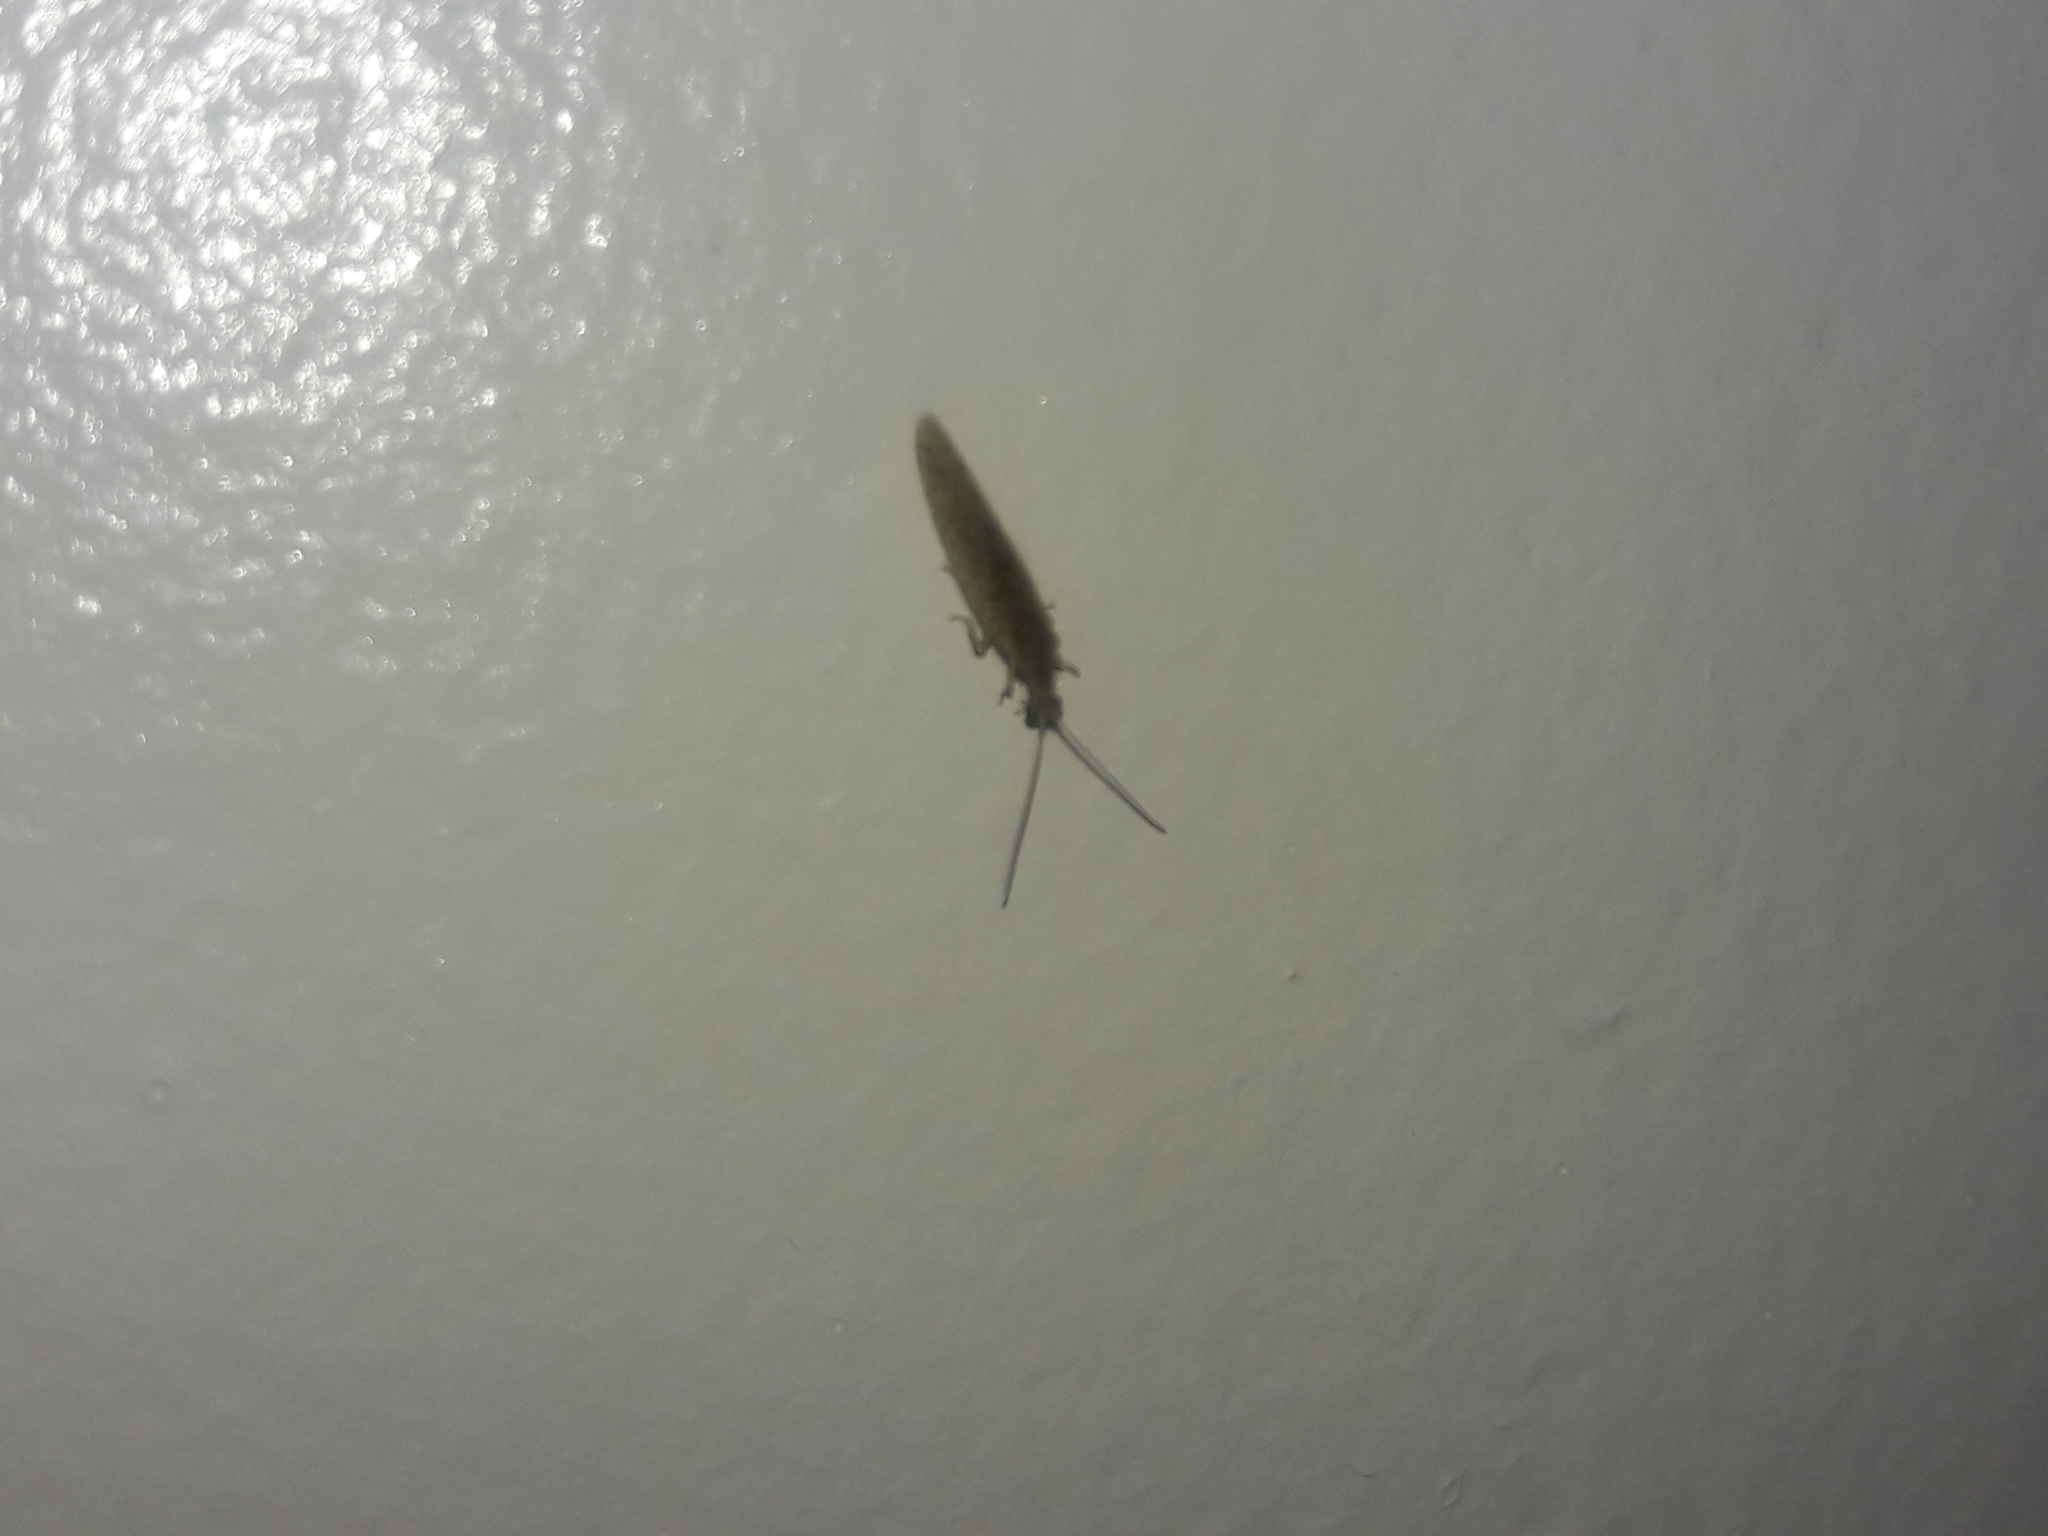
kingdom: Animalia
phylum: Arthropoda
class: Insecta
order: Neuroptera
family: Hemerobiidae
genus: Micromus
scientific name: Micromus tasmaniae
